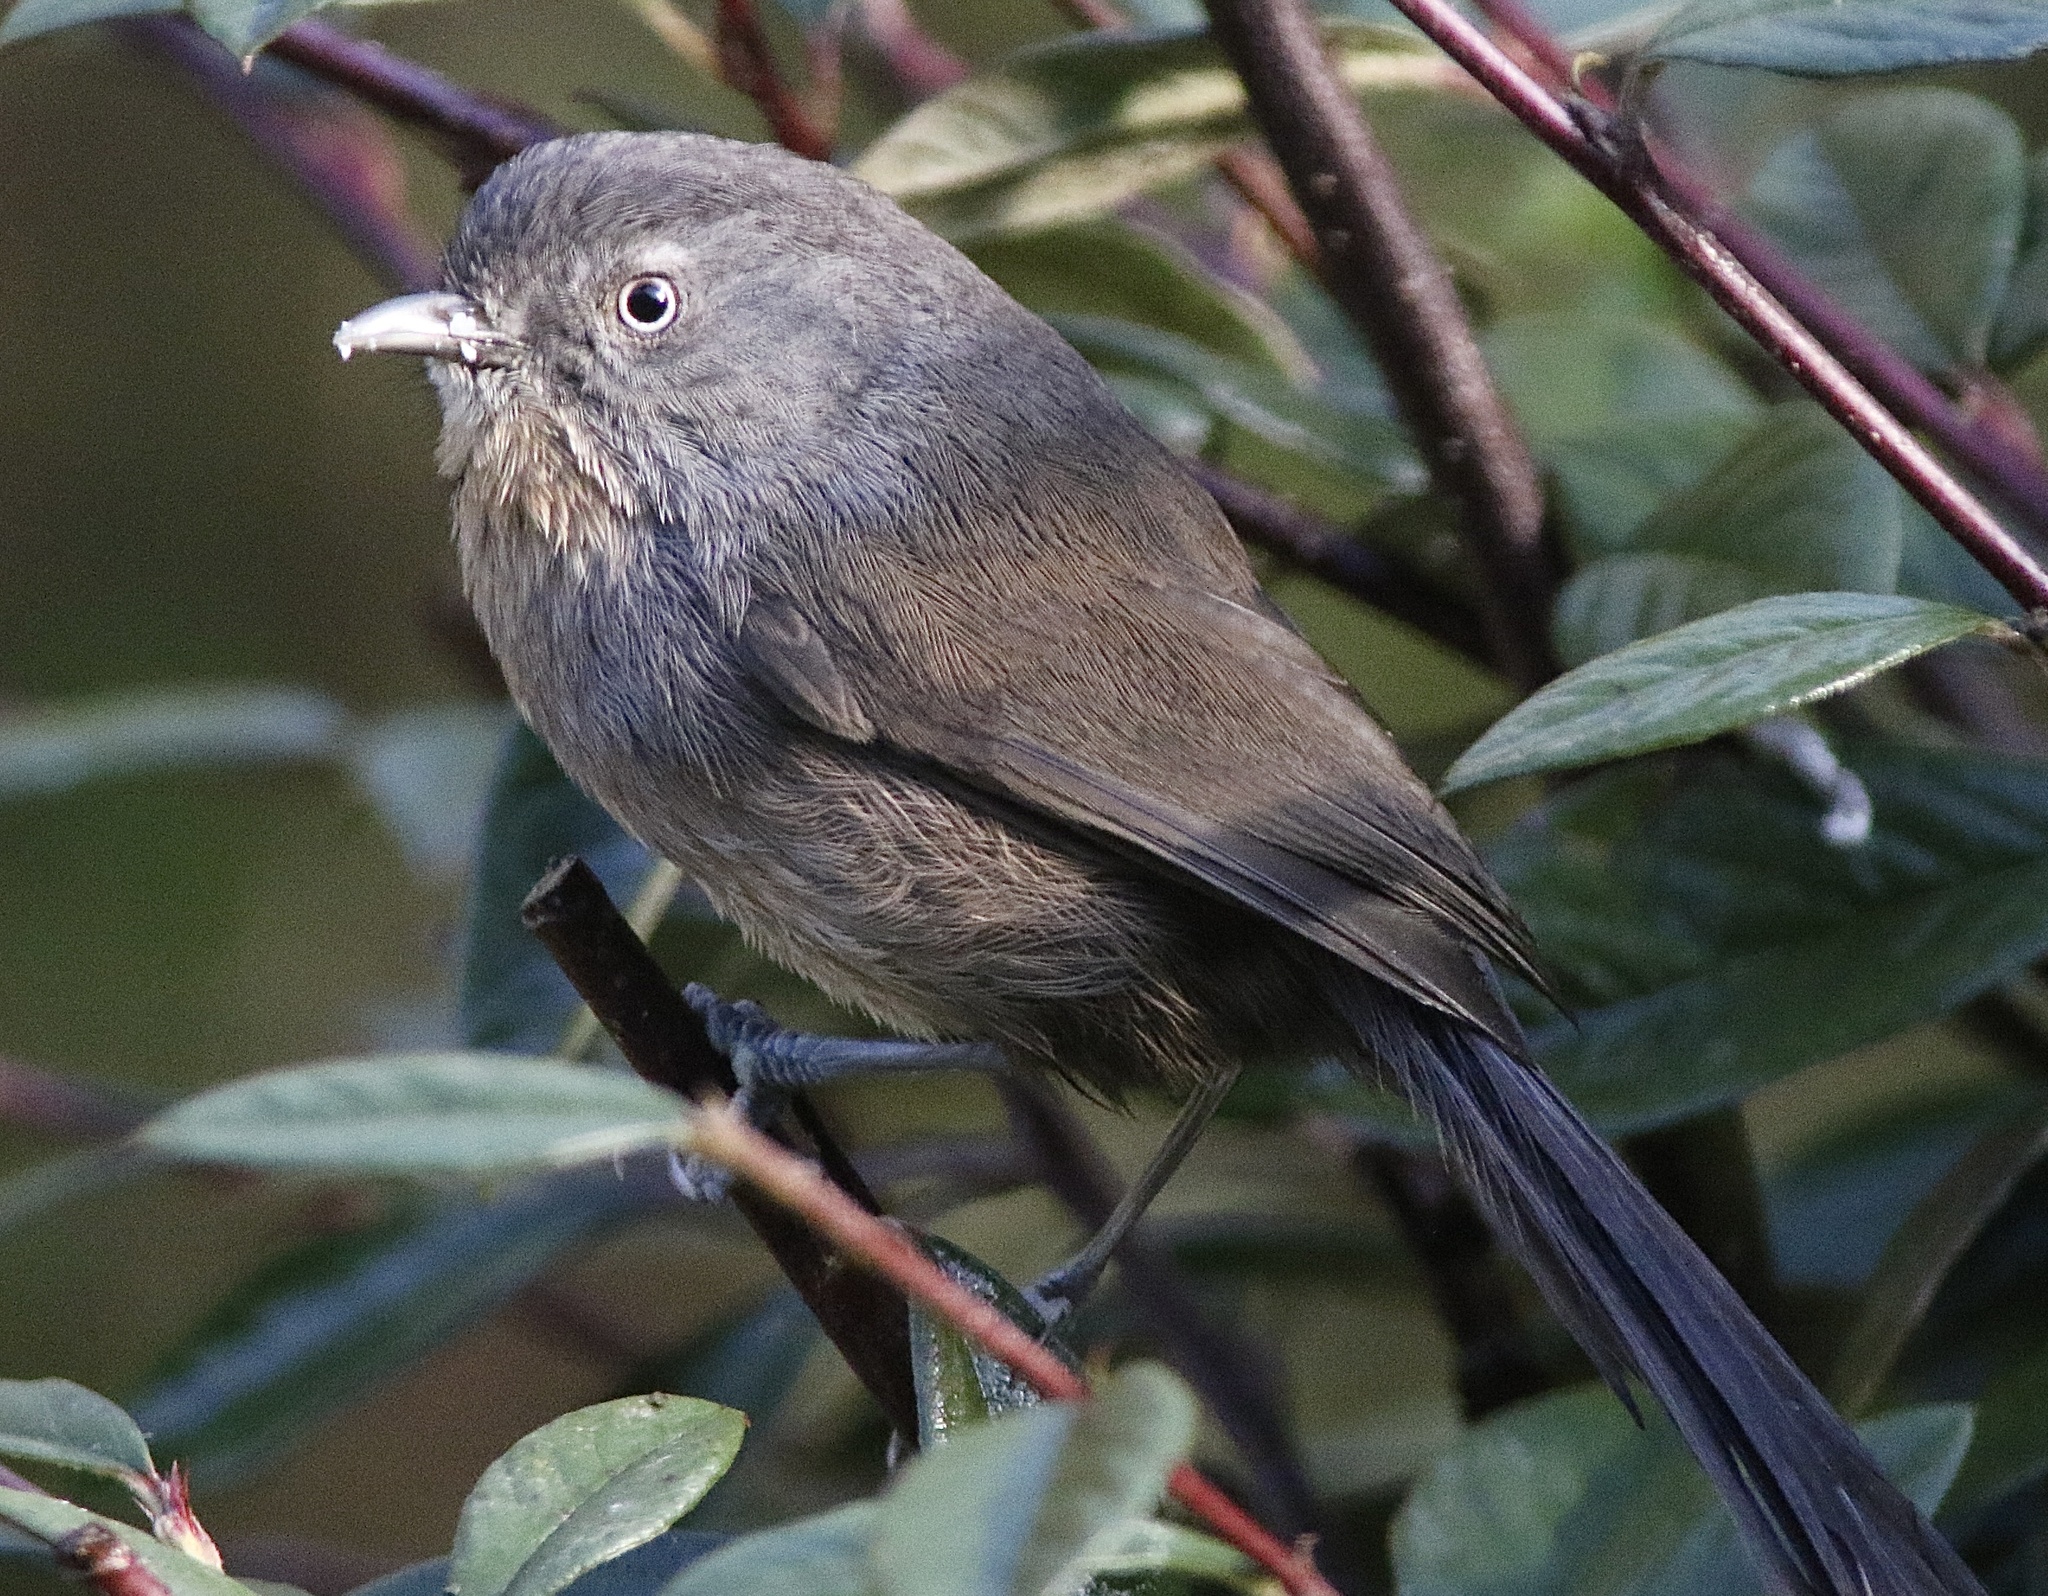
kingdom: Animalia
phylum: Chordata
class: Aves
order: Passeriformes
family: Sylviidae
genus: Chamaea
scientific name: Chamaea fasciata
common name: Wrentit
